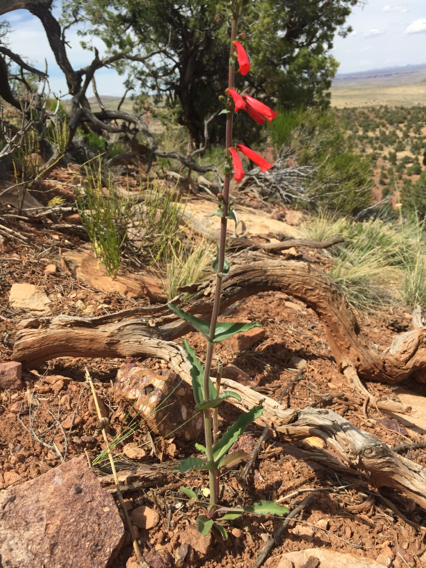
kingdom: Plantae
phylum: Tracheophyta
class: Magnoliopsida
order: Lamiales
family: Plantaginaceae
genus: Penstemon
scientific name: Penstemon eatonii
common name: Eaton's penstemon
